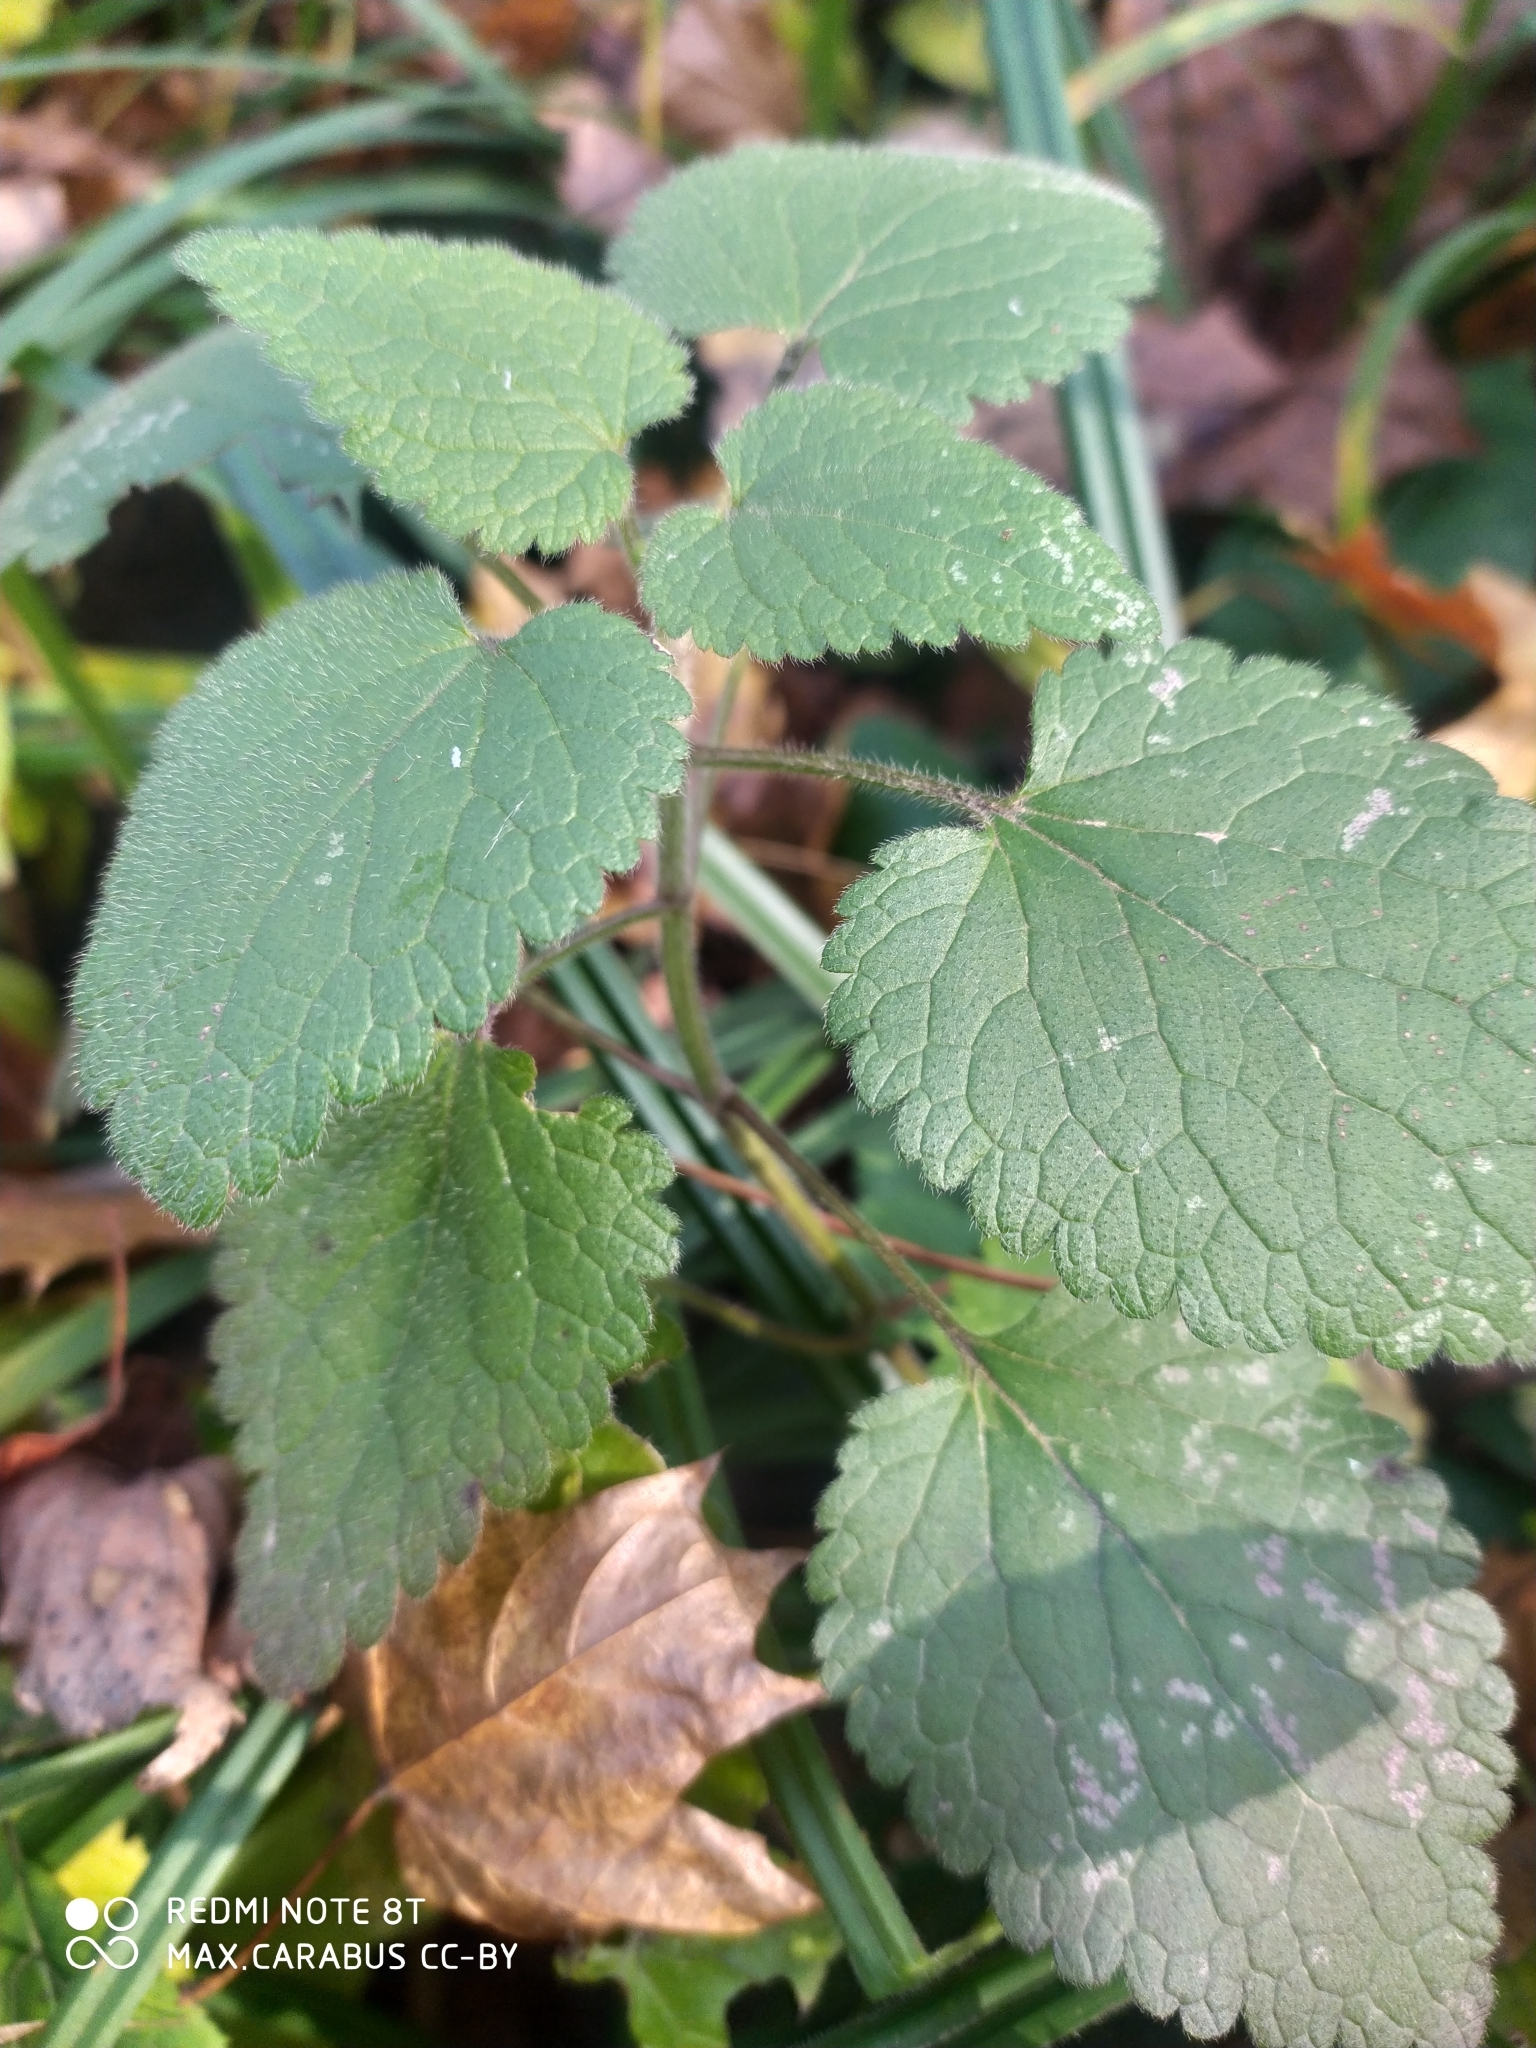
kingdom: Plantae
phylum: Tracheophyta
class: Magnoliopsida
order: Lamiales
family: Lamiaceae
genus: Stachys
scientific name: Stachys sylvatica
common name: Hedge woundwort
